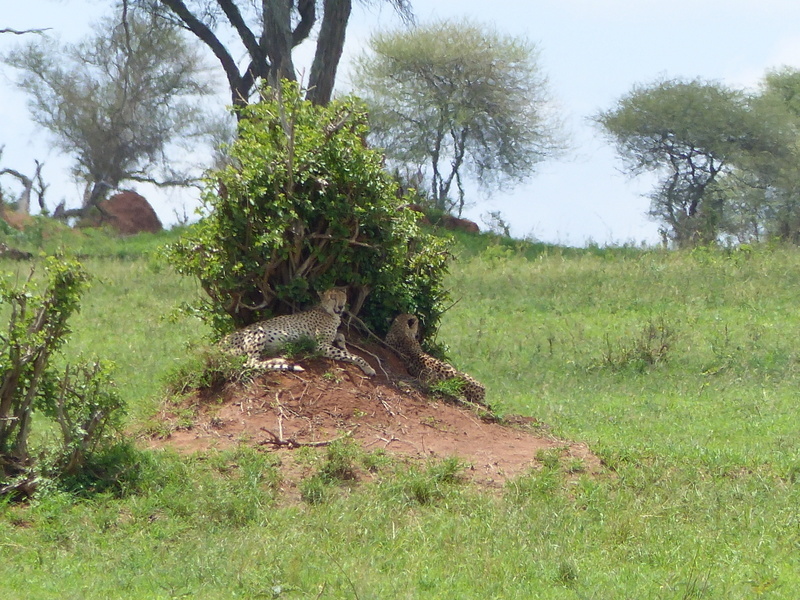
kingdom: Animalia
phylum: Chordata
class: Mammalia
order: Carnivora
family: Felidae
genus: Acinonyx
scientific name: Acinonyx jubatus
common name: Cheetah
